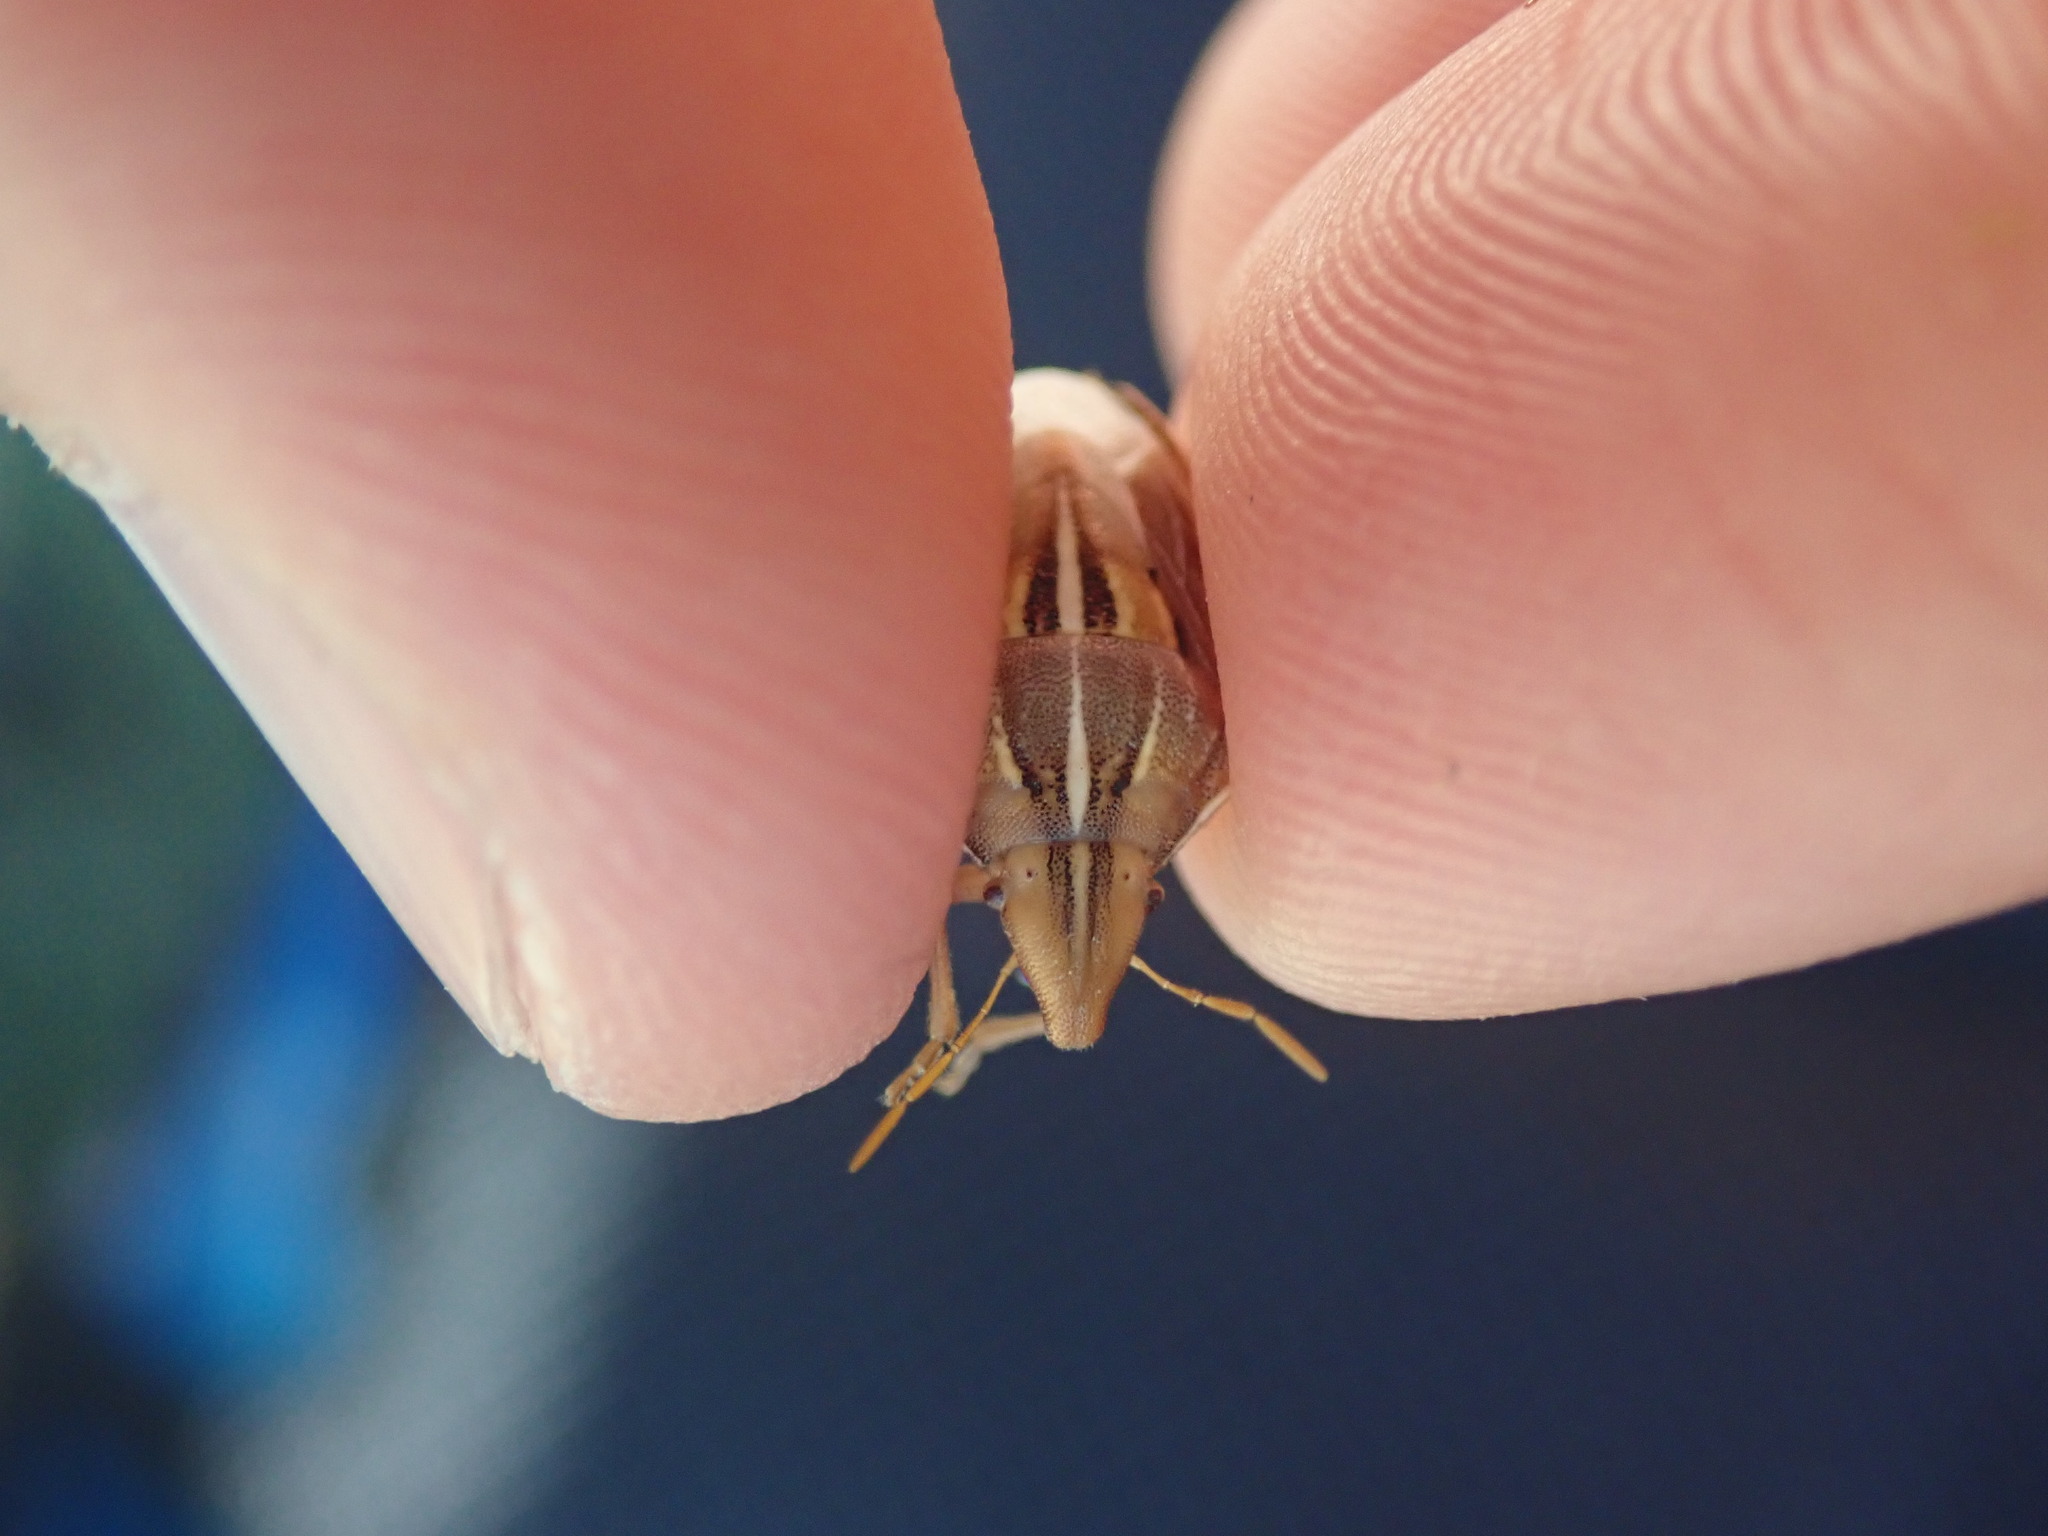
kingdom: Animalia
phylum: Arthropoda
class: Insecta
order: Hemiptera
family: Pentatomidae
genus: Aelia
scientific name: Aelia rostrata
